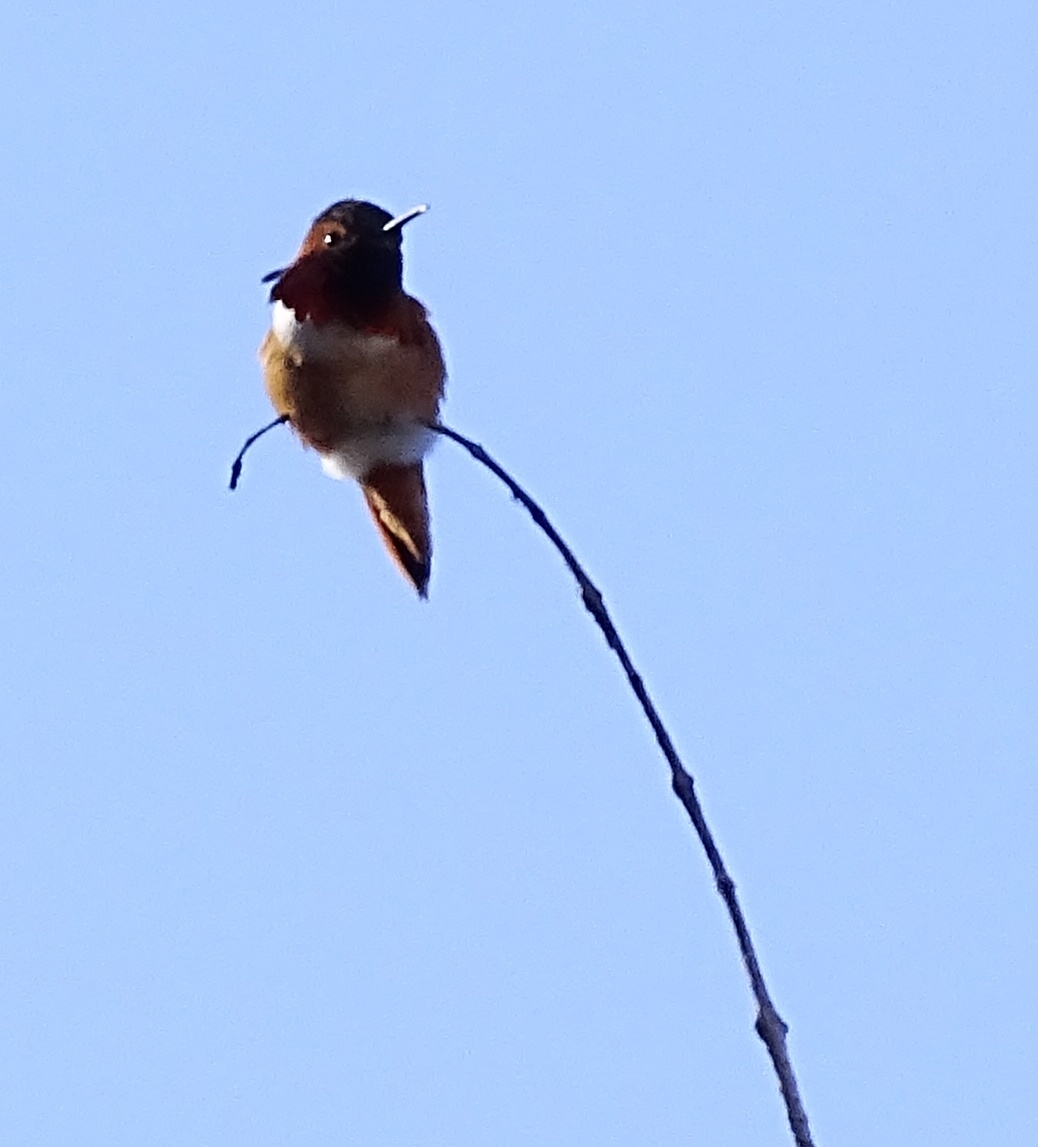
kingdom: Animalia
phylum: Chordata
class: Aves
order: Apodiformes
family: Trochilidae
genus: Selasphorus
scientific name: Selasphorus
